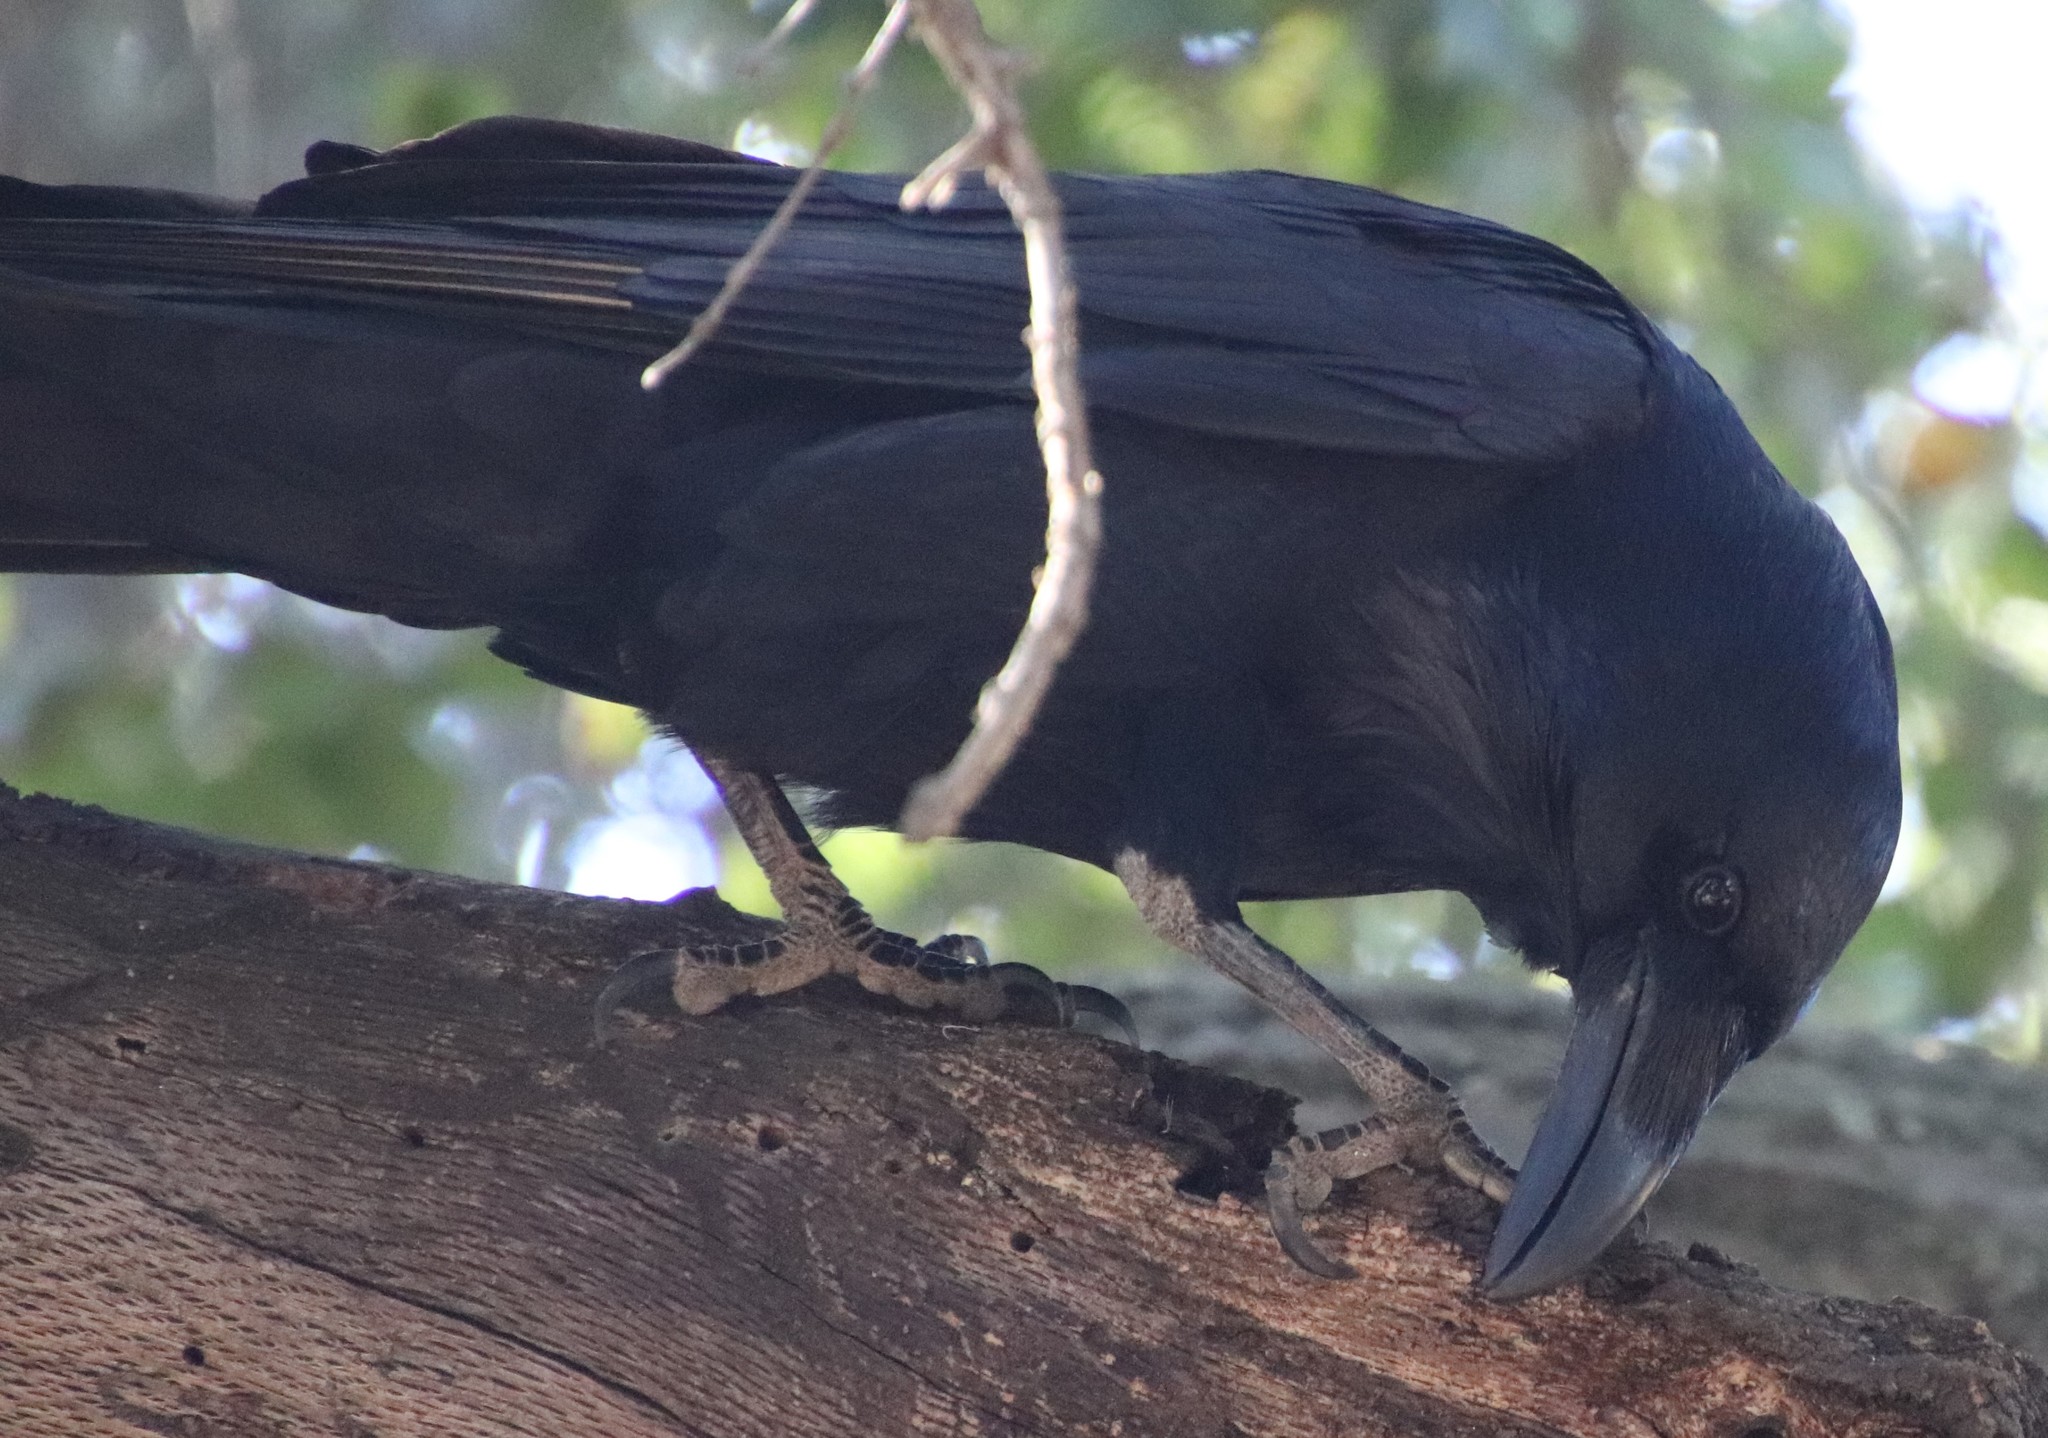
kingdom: Animalia
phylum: Chordata
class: Aves
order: Passeriformes
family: Corvidae
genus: Corvus
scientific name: Corvus corax
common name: Common raven
